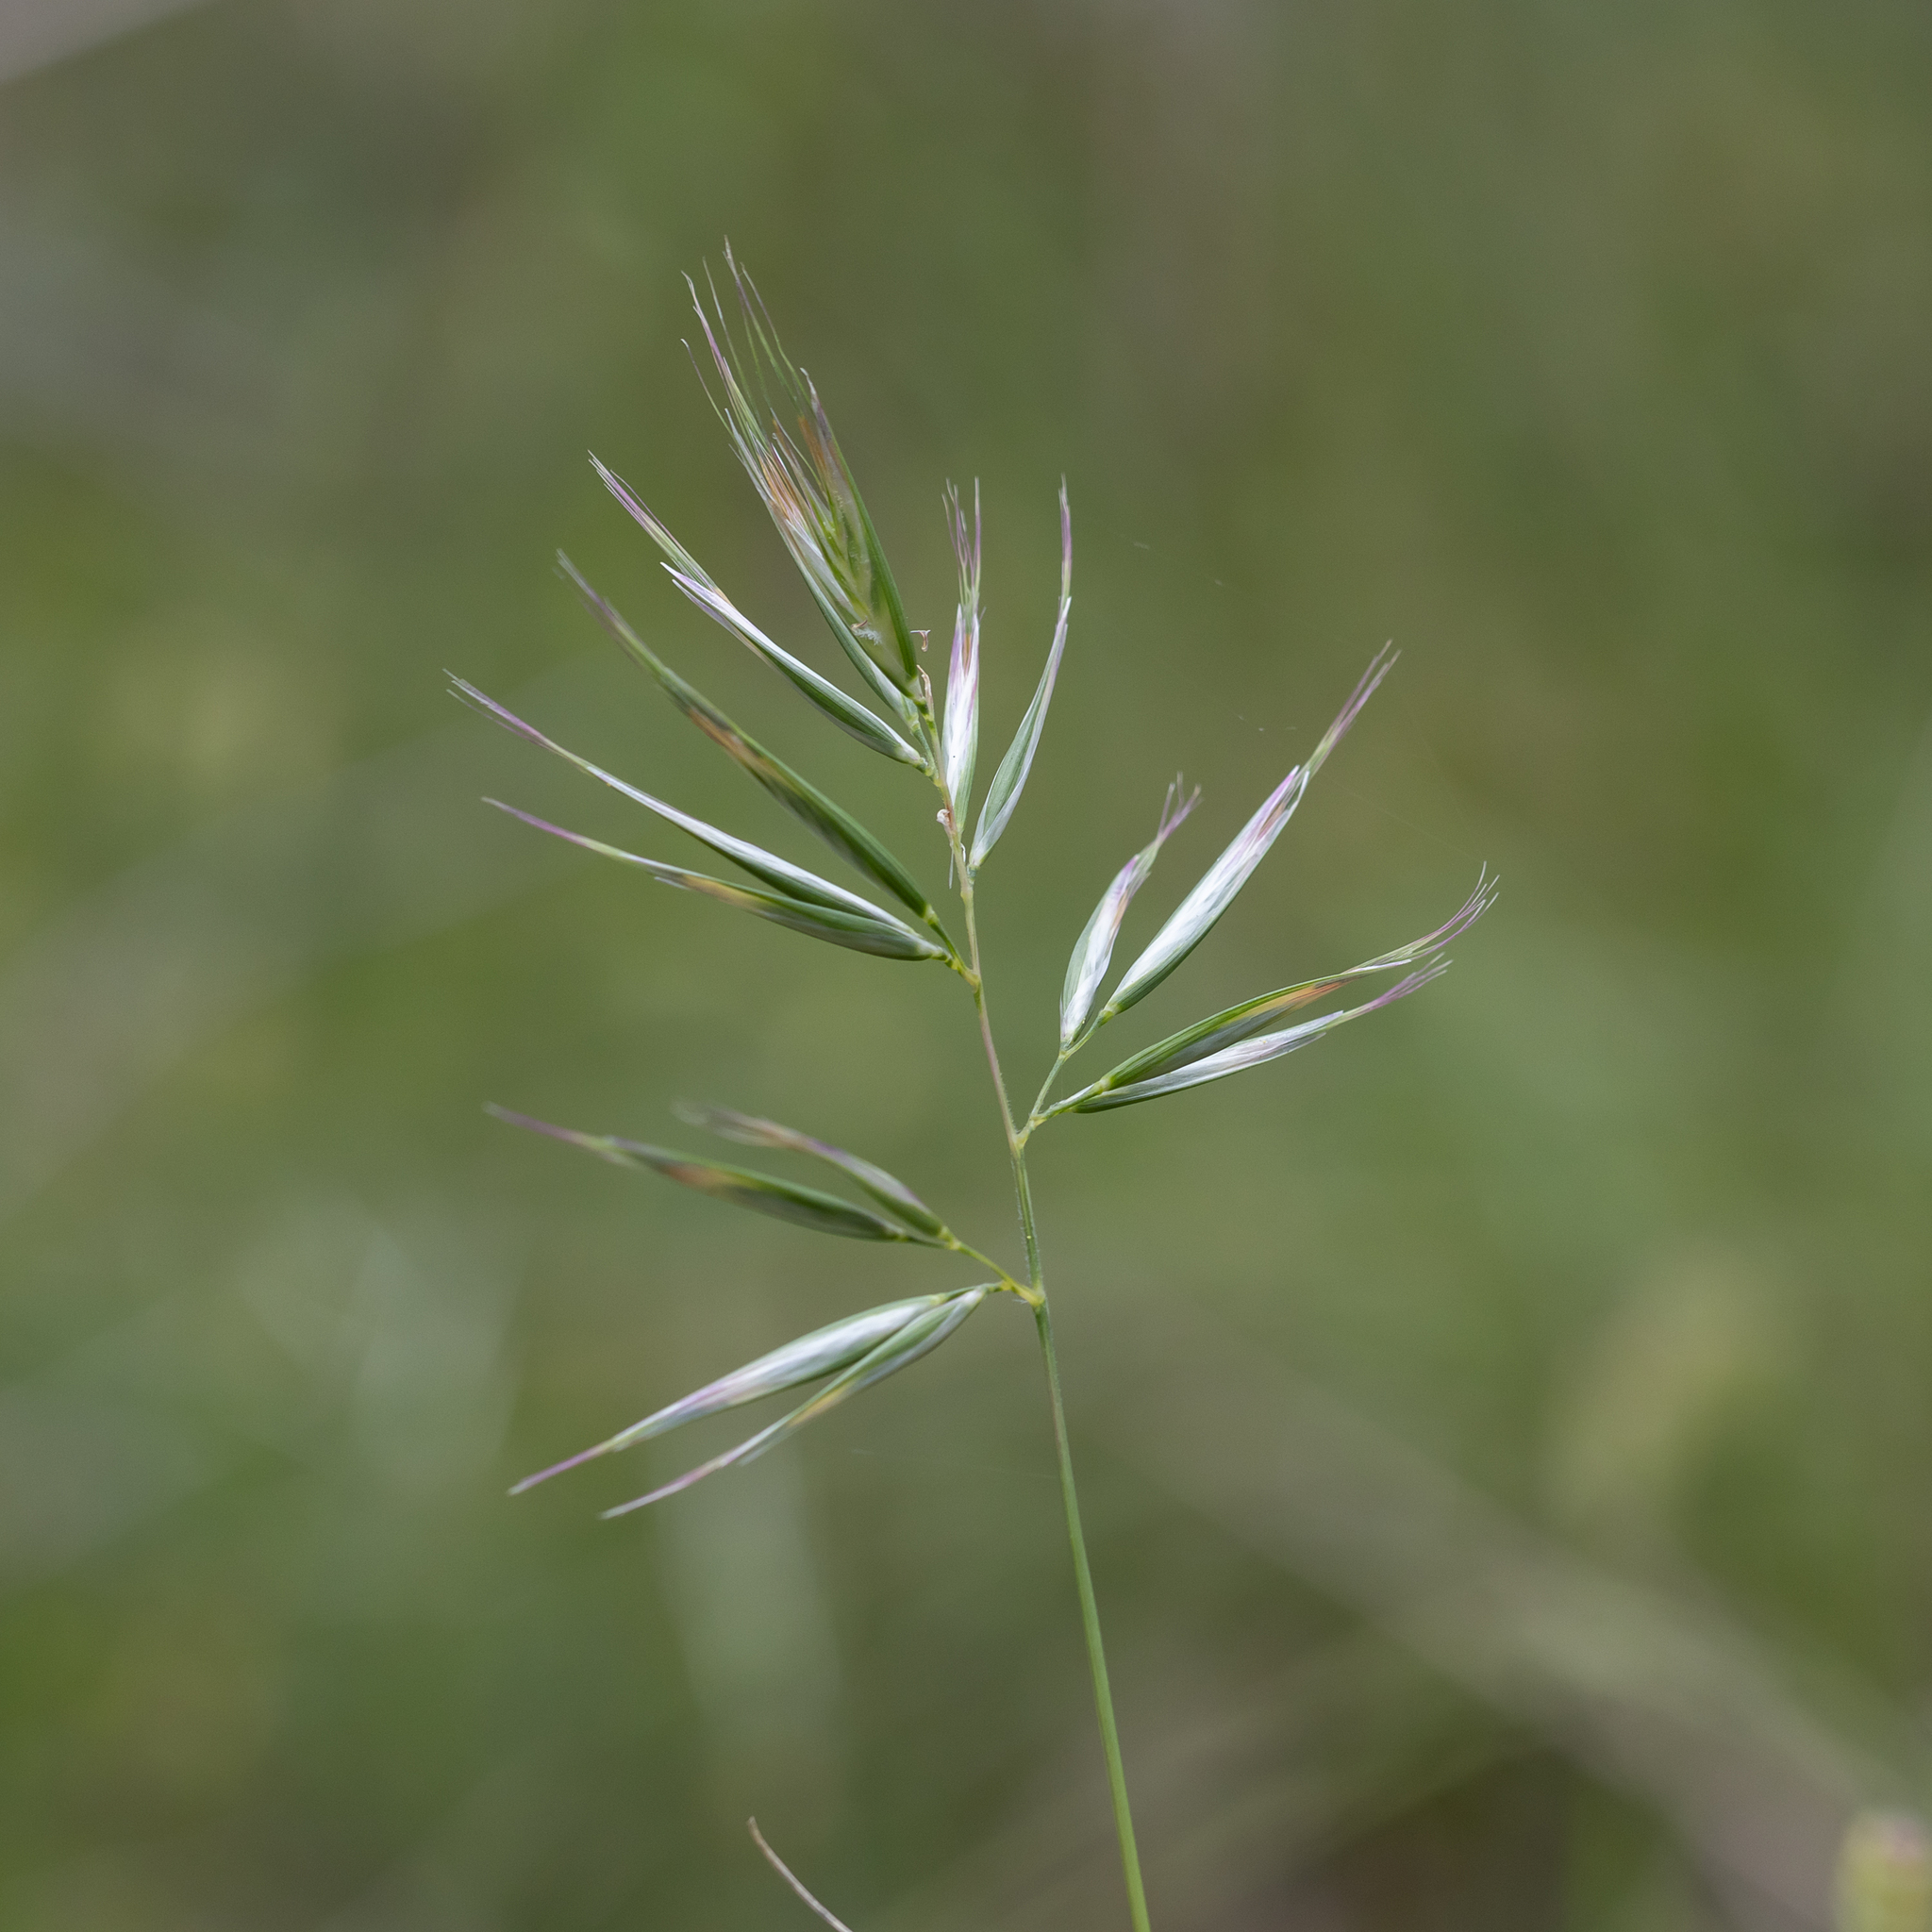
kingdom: Plantae
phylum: Tracheophyta
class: Liliopsida
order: Poales
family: Poaceae
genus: Rytidosperma
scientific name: Rytidosperma pilosum
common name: Hairy wallaby grass
